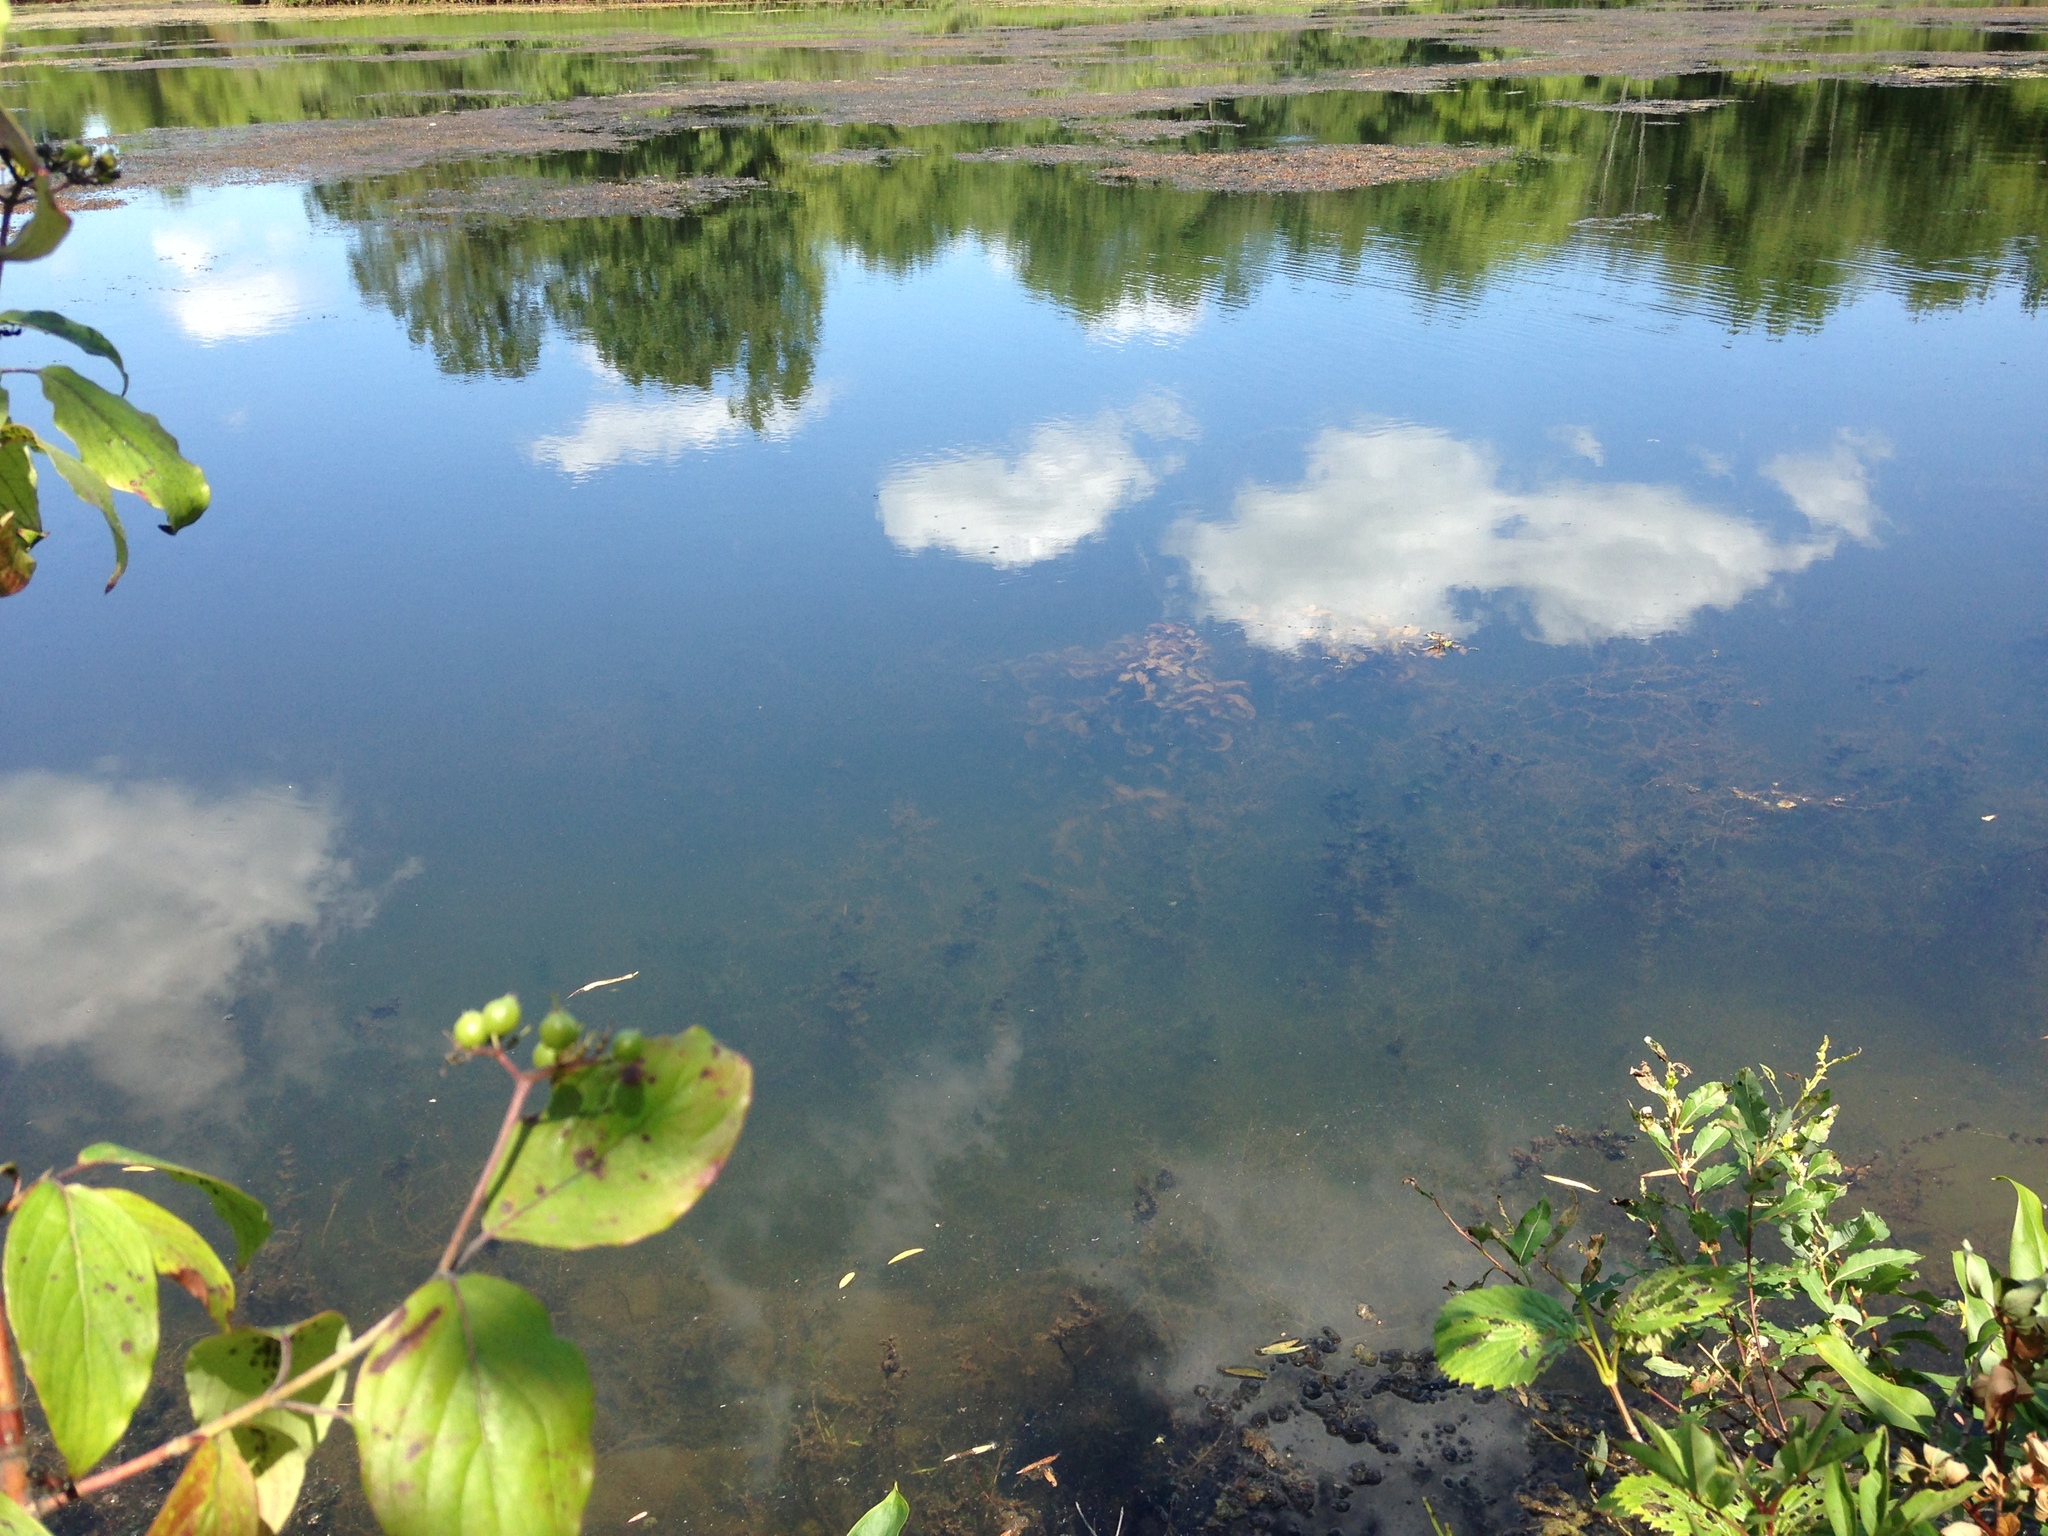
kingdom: Plantae
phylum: Tracheophyta
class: Liliopsida
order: Alismatales
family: Potamogetonaceae
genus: Potamogeton
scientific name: Potamogeton amplifolius
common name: Broad-leaved pondweed
